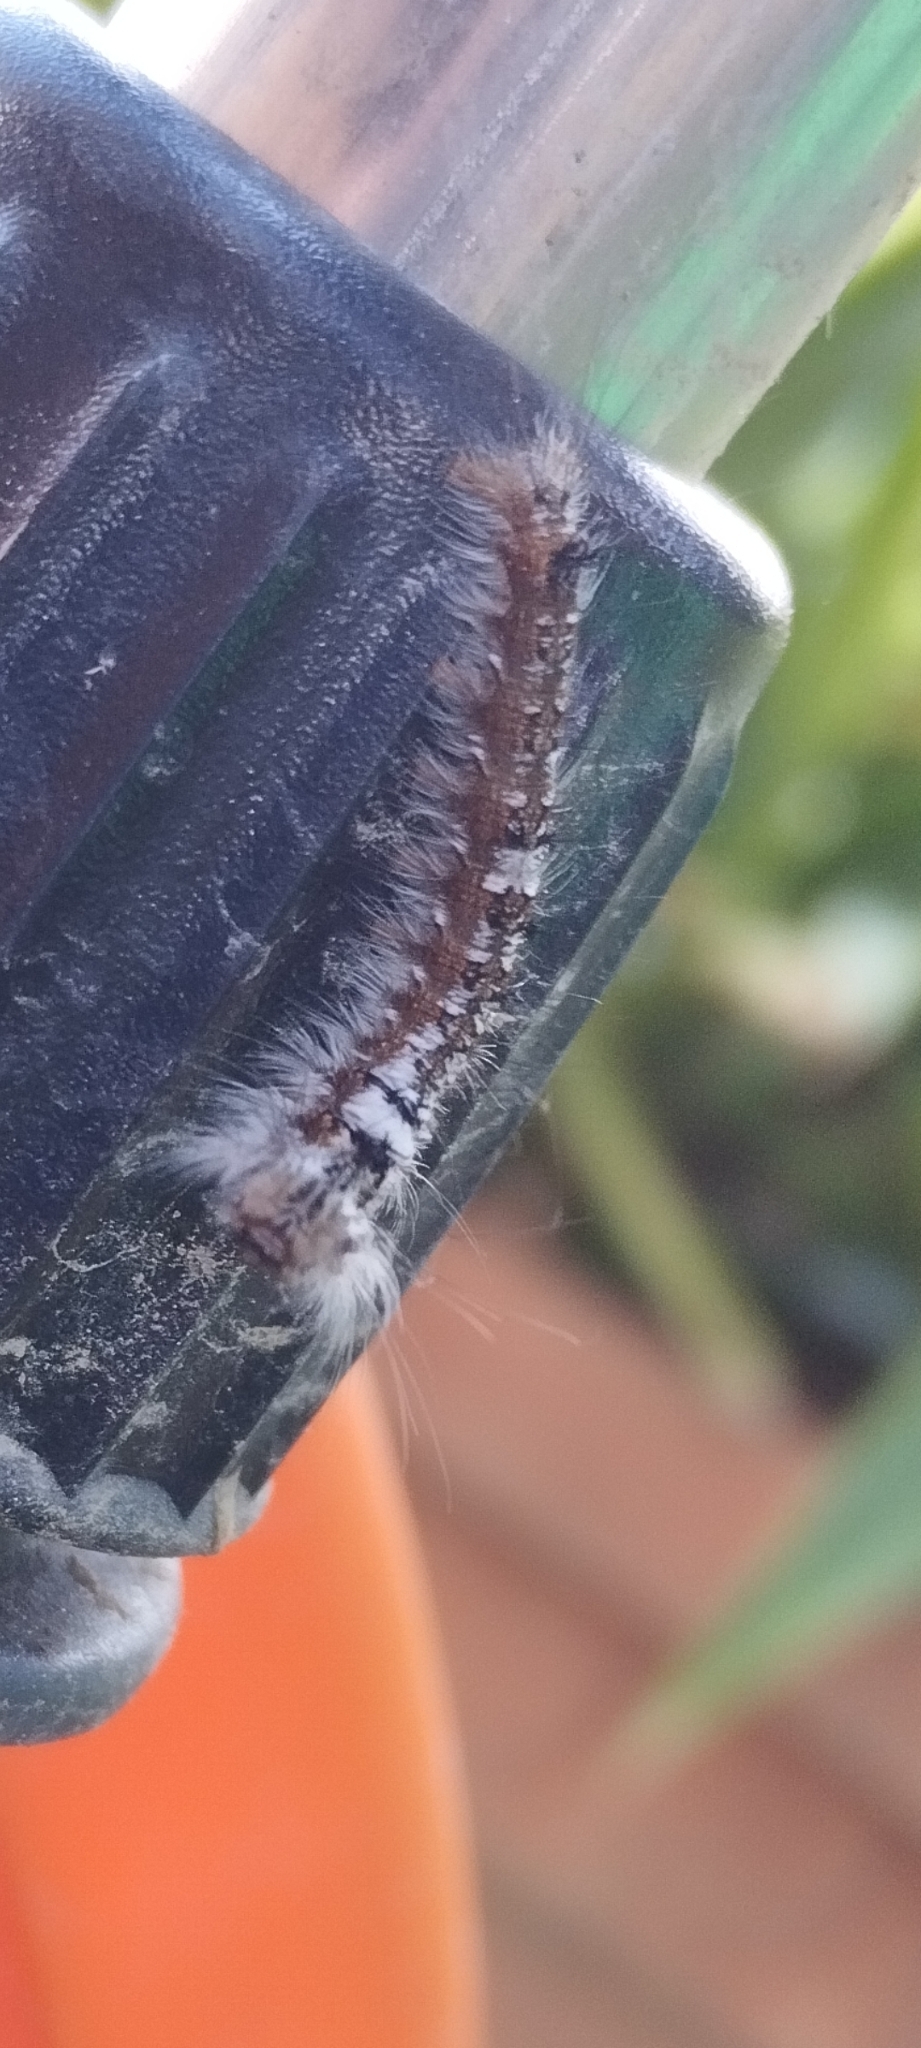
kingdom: Animalia
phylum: Arthropoda
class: Insecta
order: Lepidoptera
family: Lasiocampidae
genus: Dendrolimus
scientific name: Dendrolimus pini
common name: Pine-tree lappet
